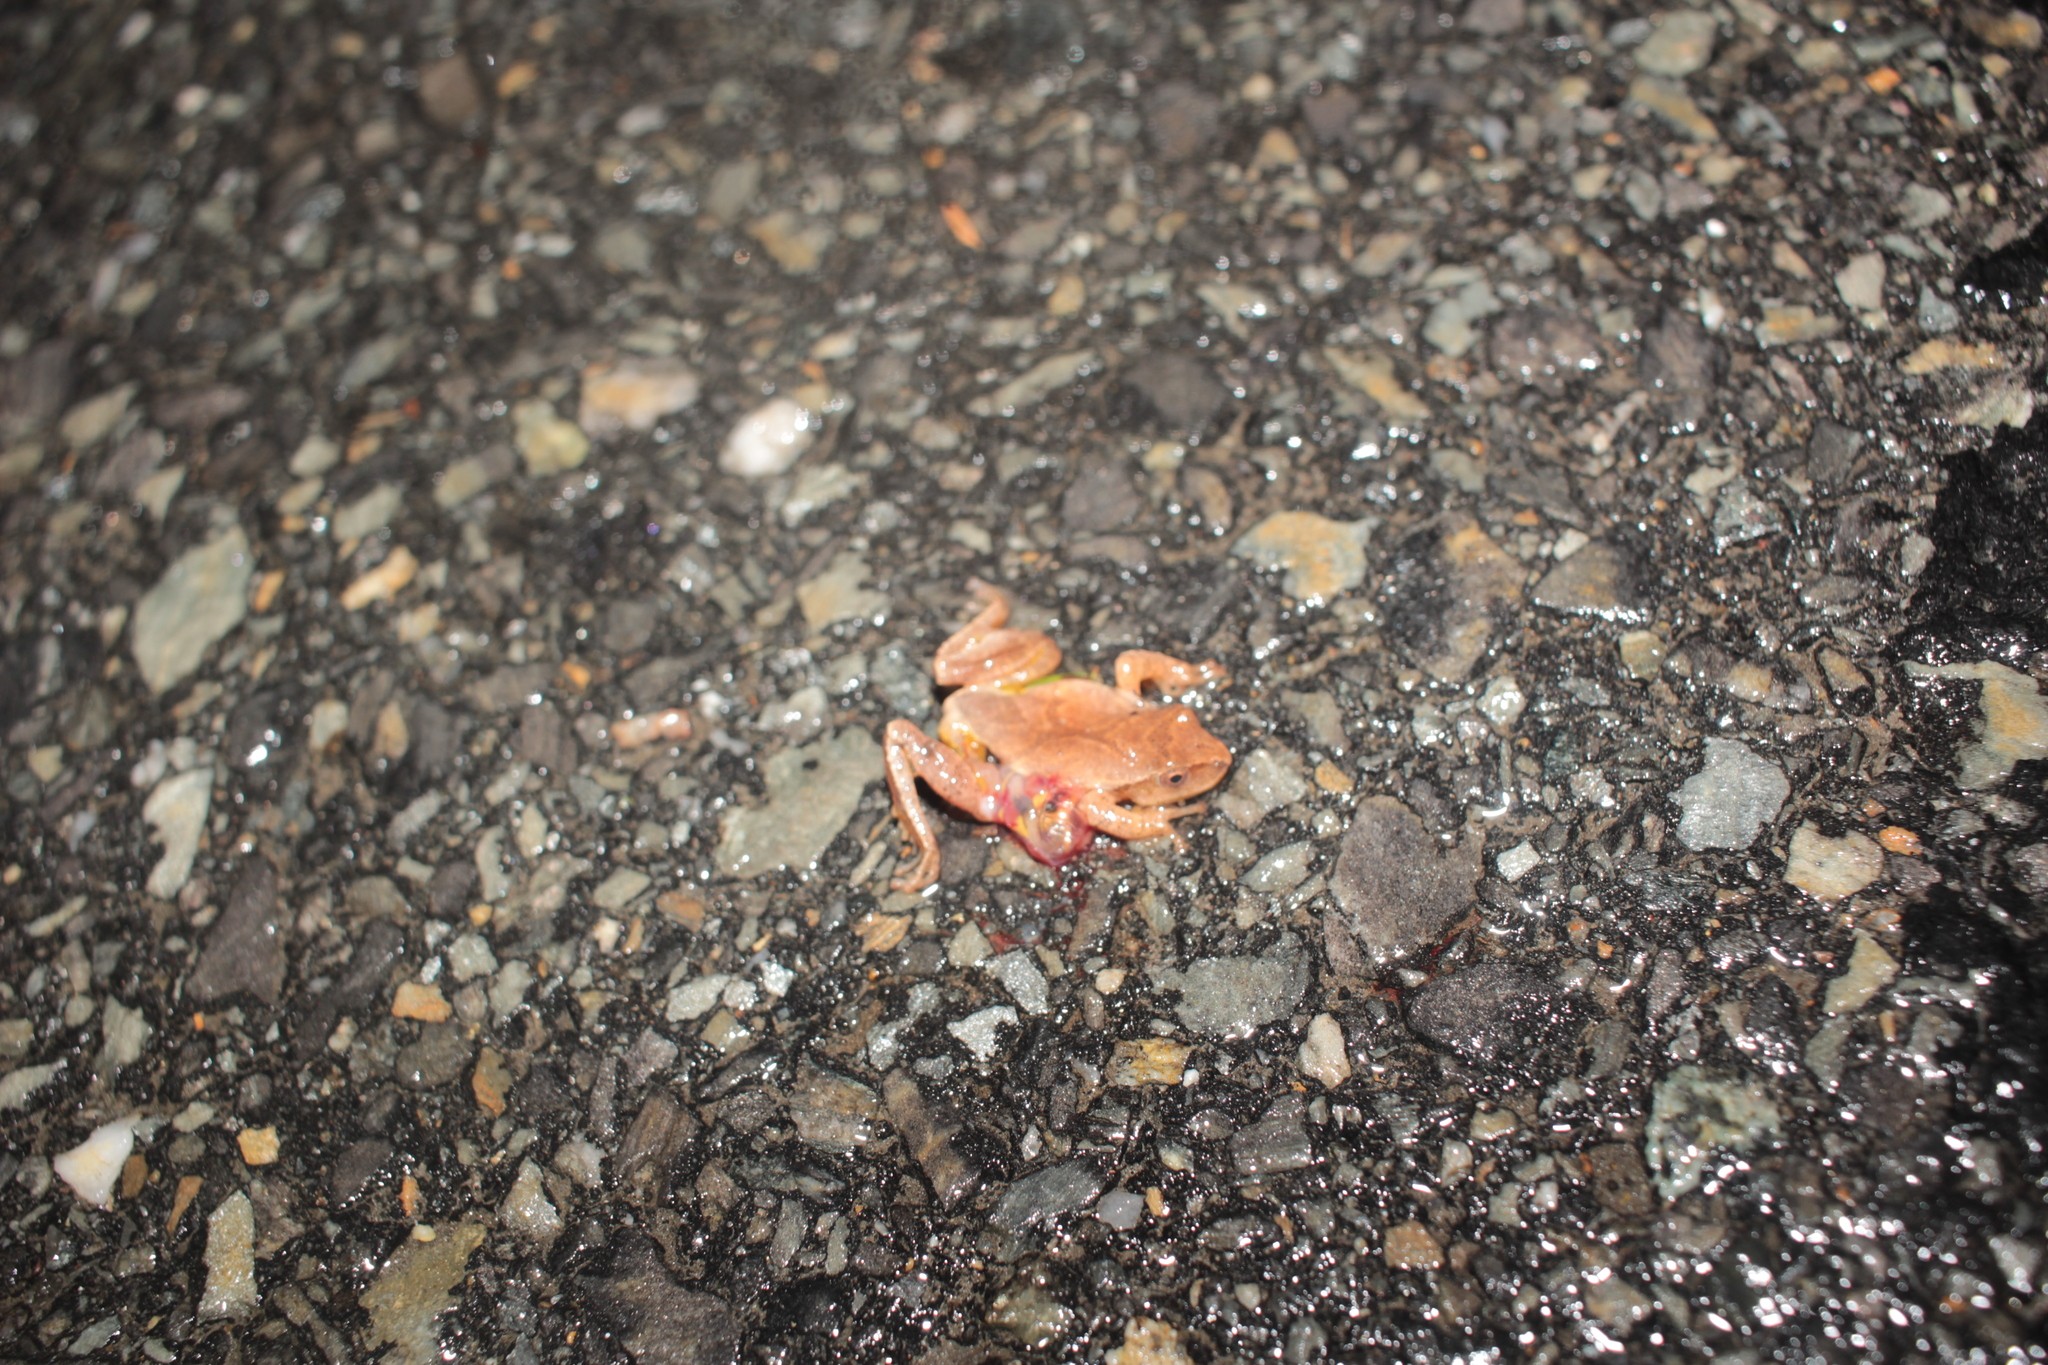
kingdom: Animalia
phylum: Chordata
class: Amphibia
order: Anura
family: Hylidae
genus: Pseudacris
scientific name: Pseudacris crucifer
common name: Spring peeper
